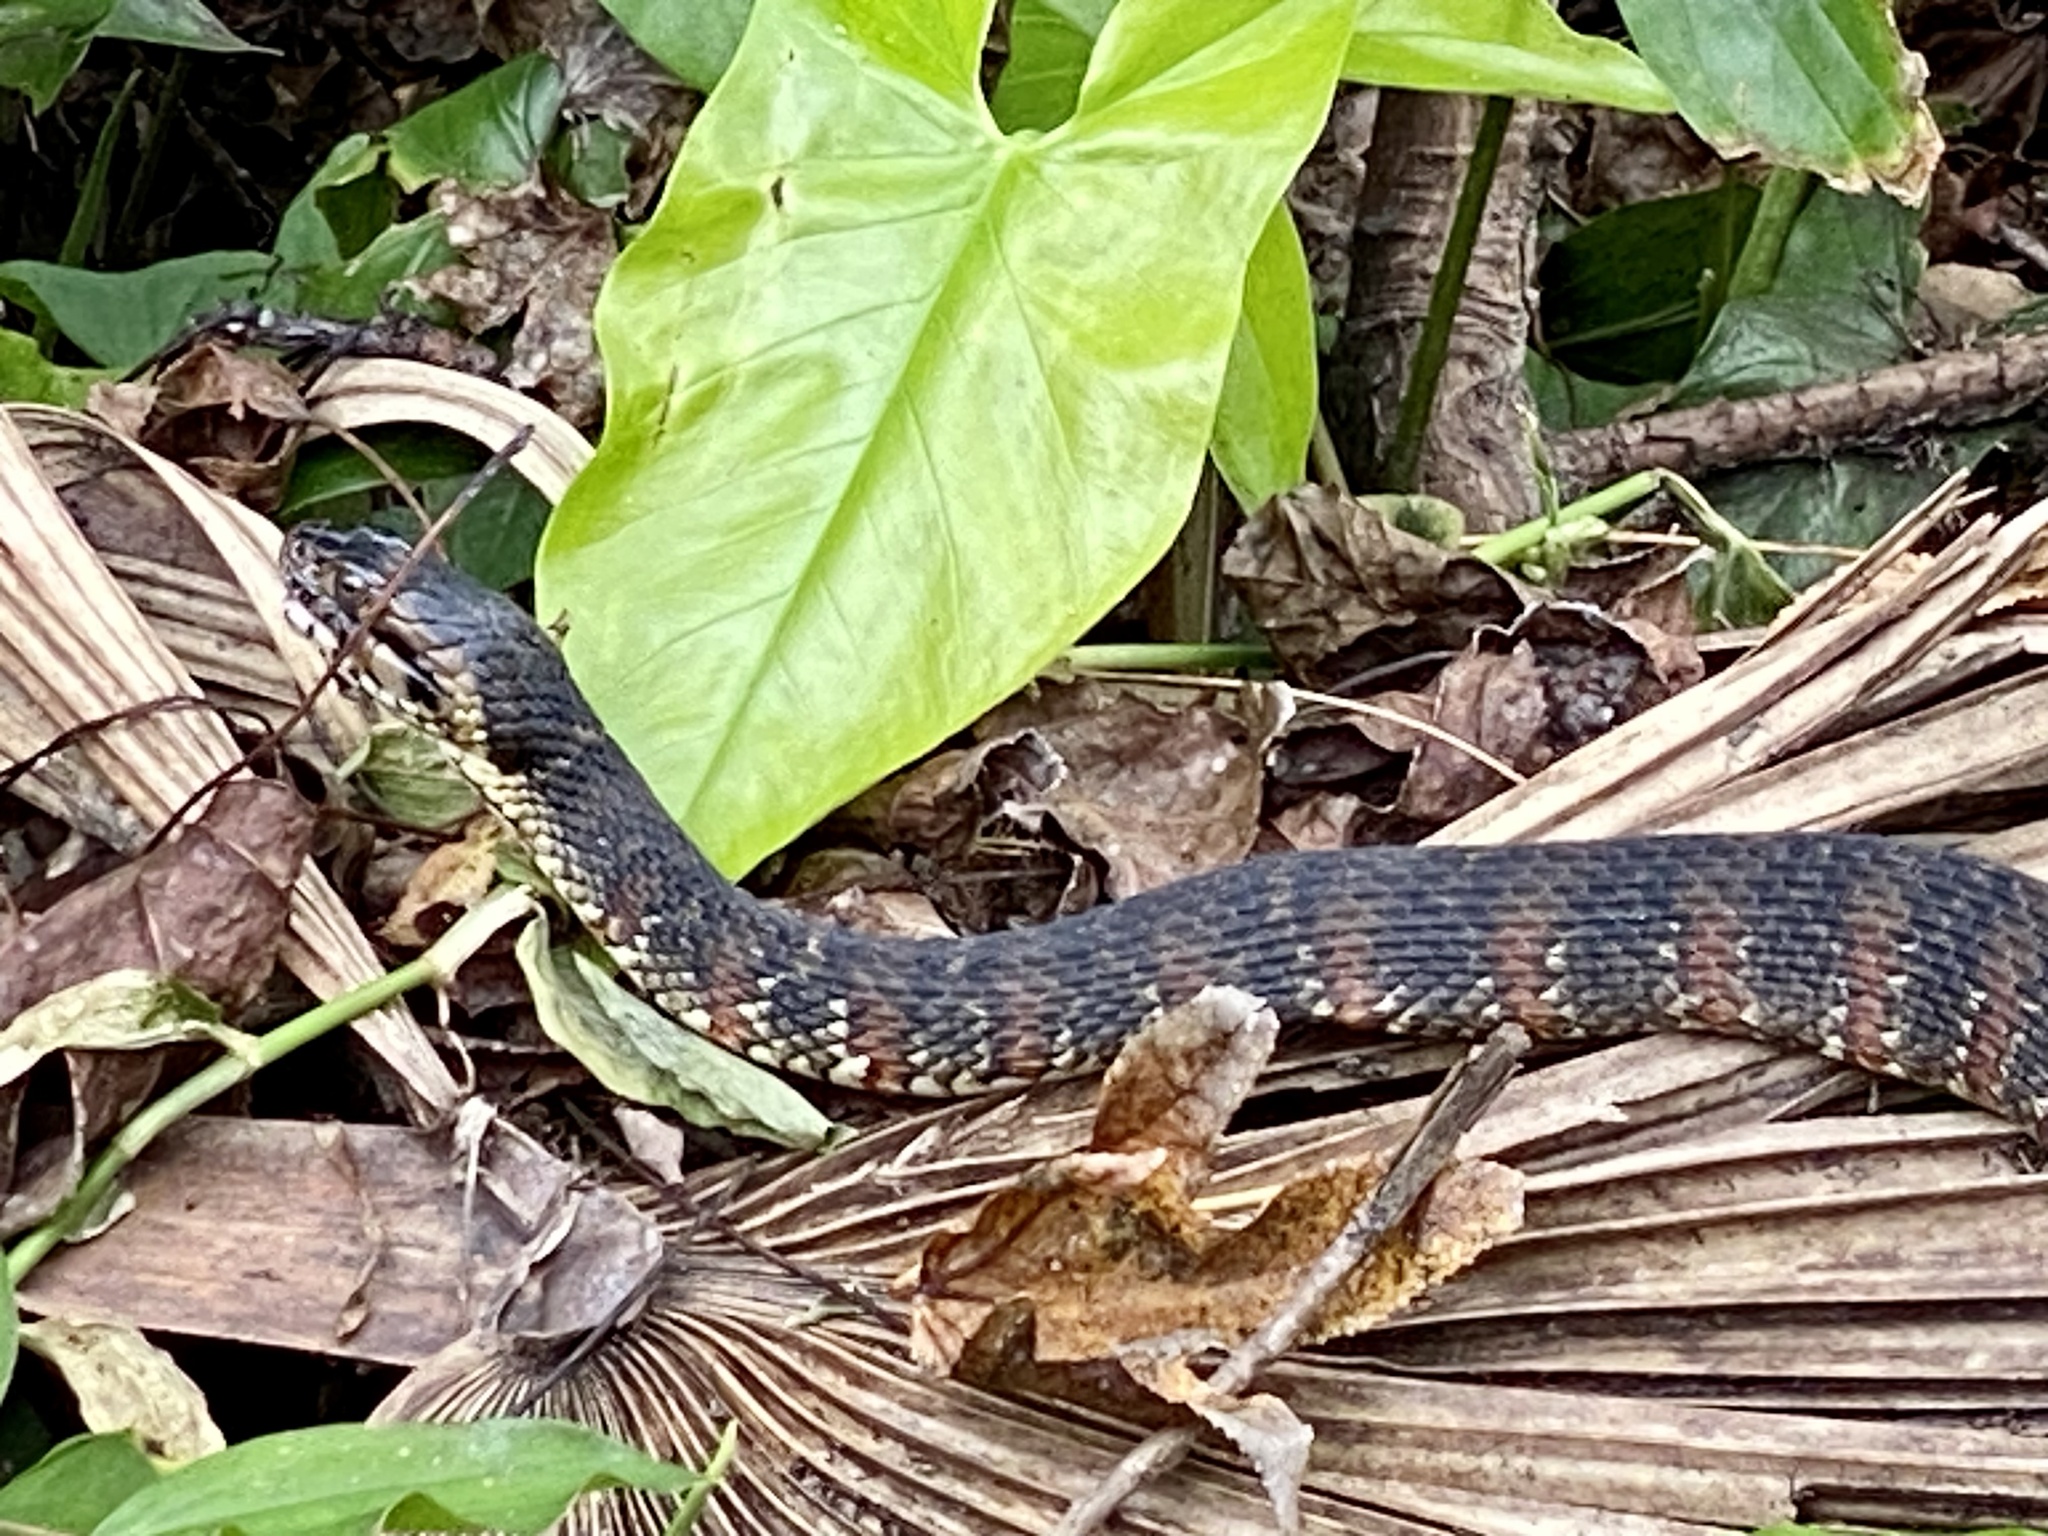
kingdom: Animalia
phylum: Chordata
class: Squamata
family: Colubridae
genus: Nerodia
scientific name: Nerodia fasciata
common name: Southern water snake
